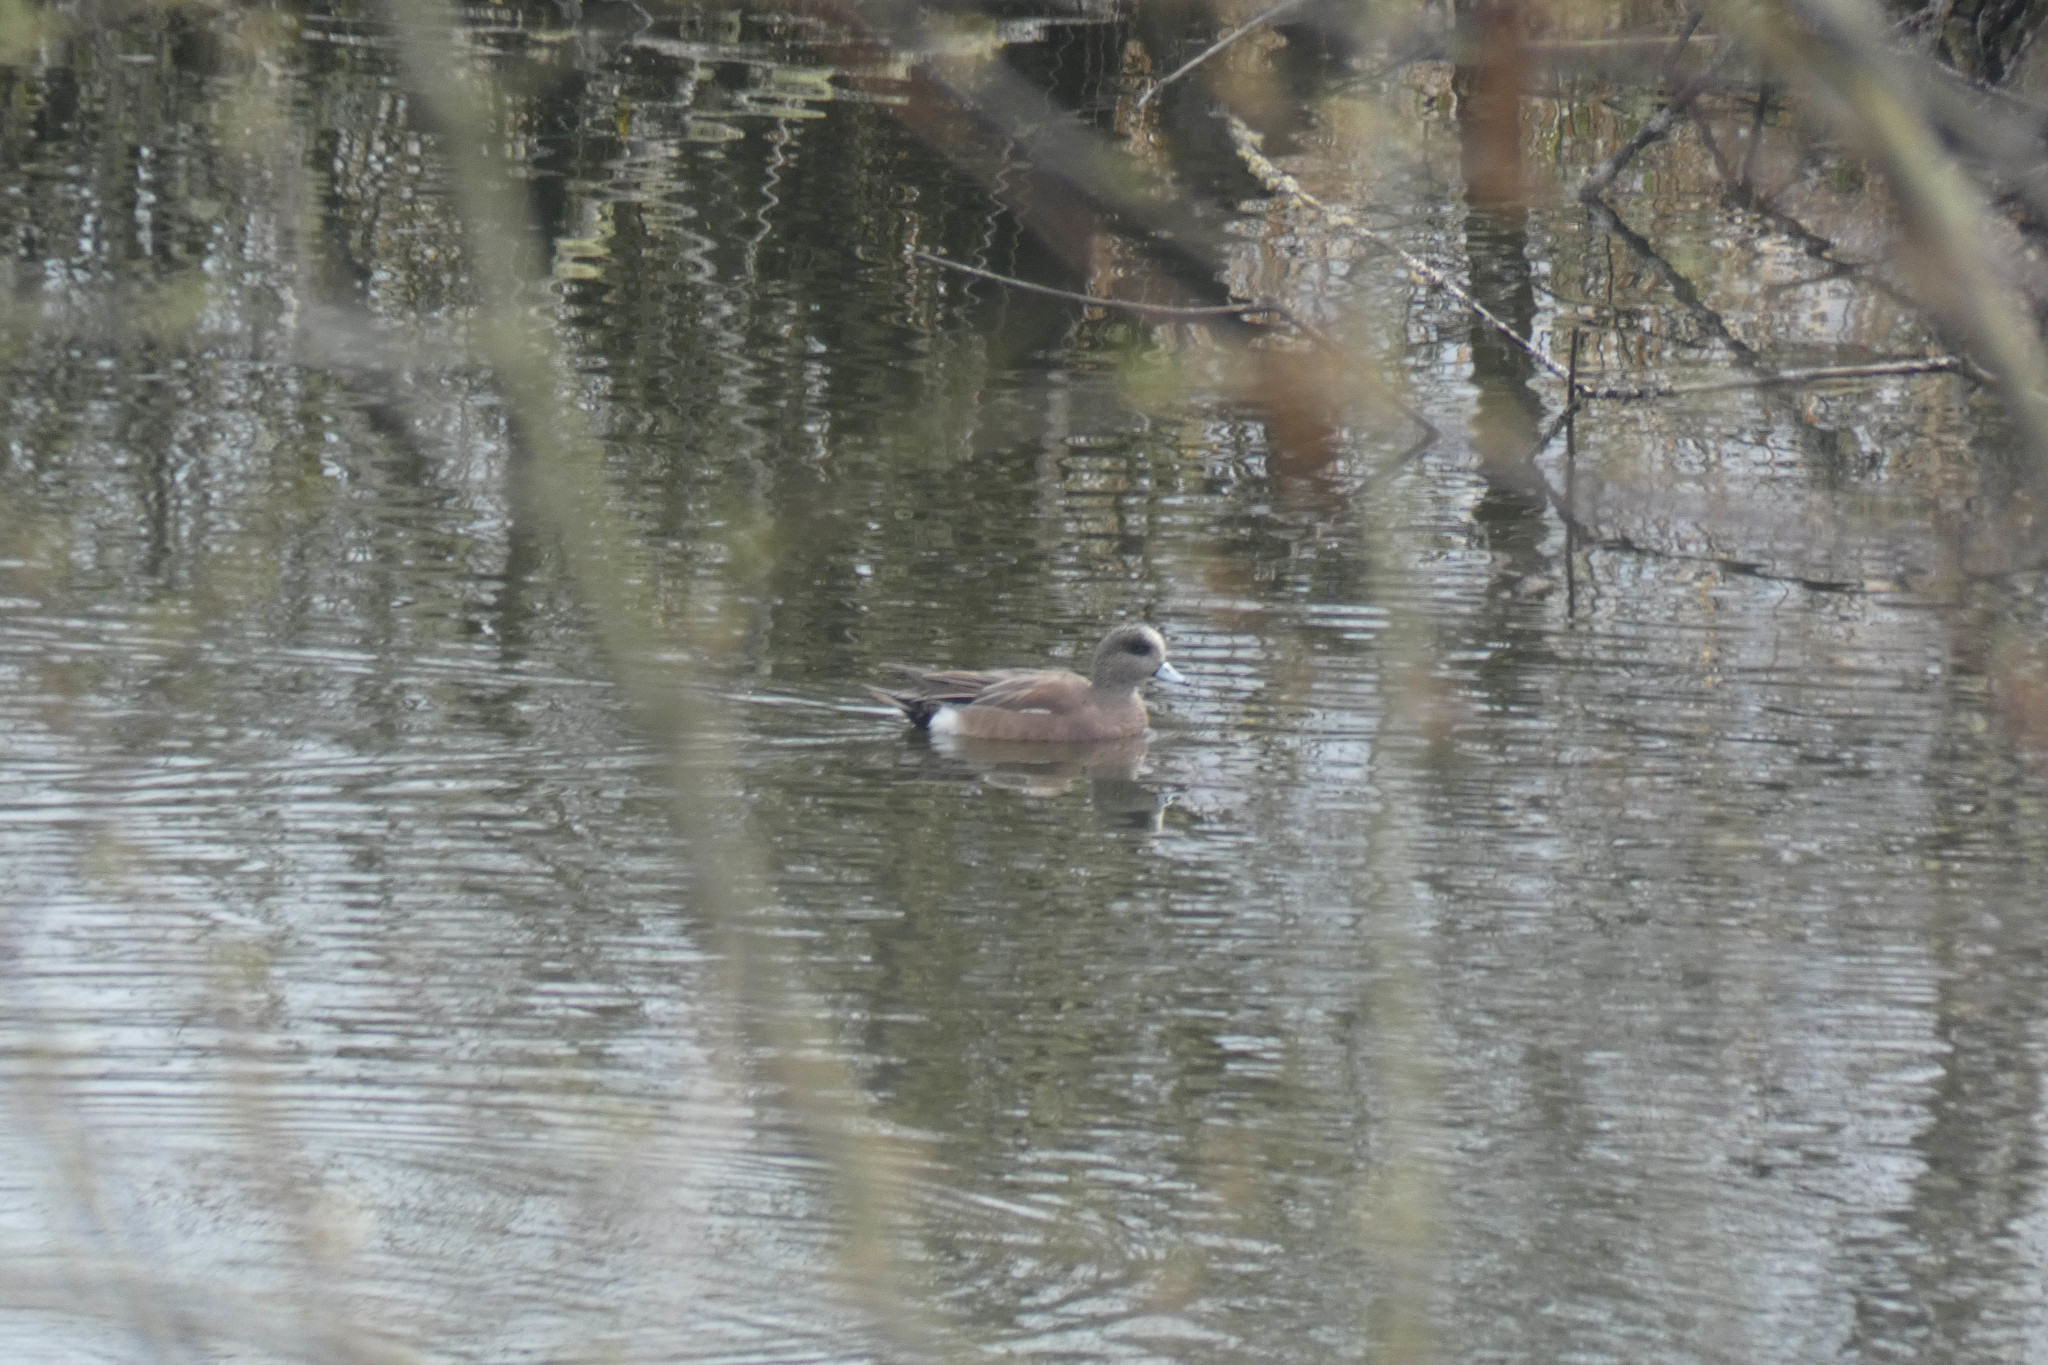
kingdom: Animalia
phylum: Chordata
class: Aves
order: Anseriformes
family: Anatidae
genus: Mareca
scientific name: Mareca americana
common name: American wigeon
